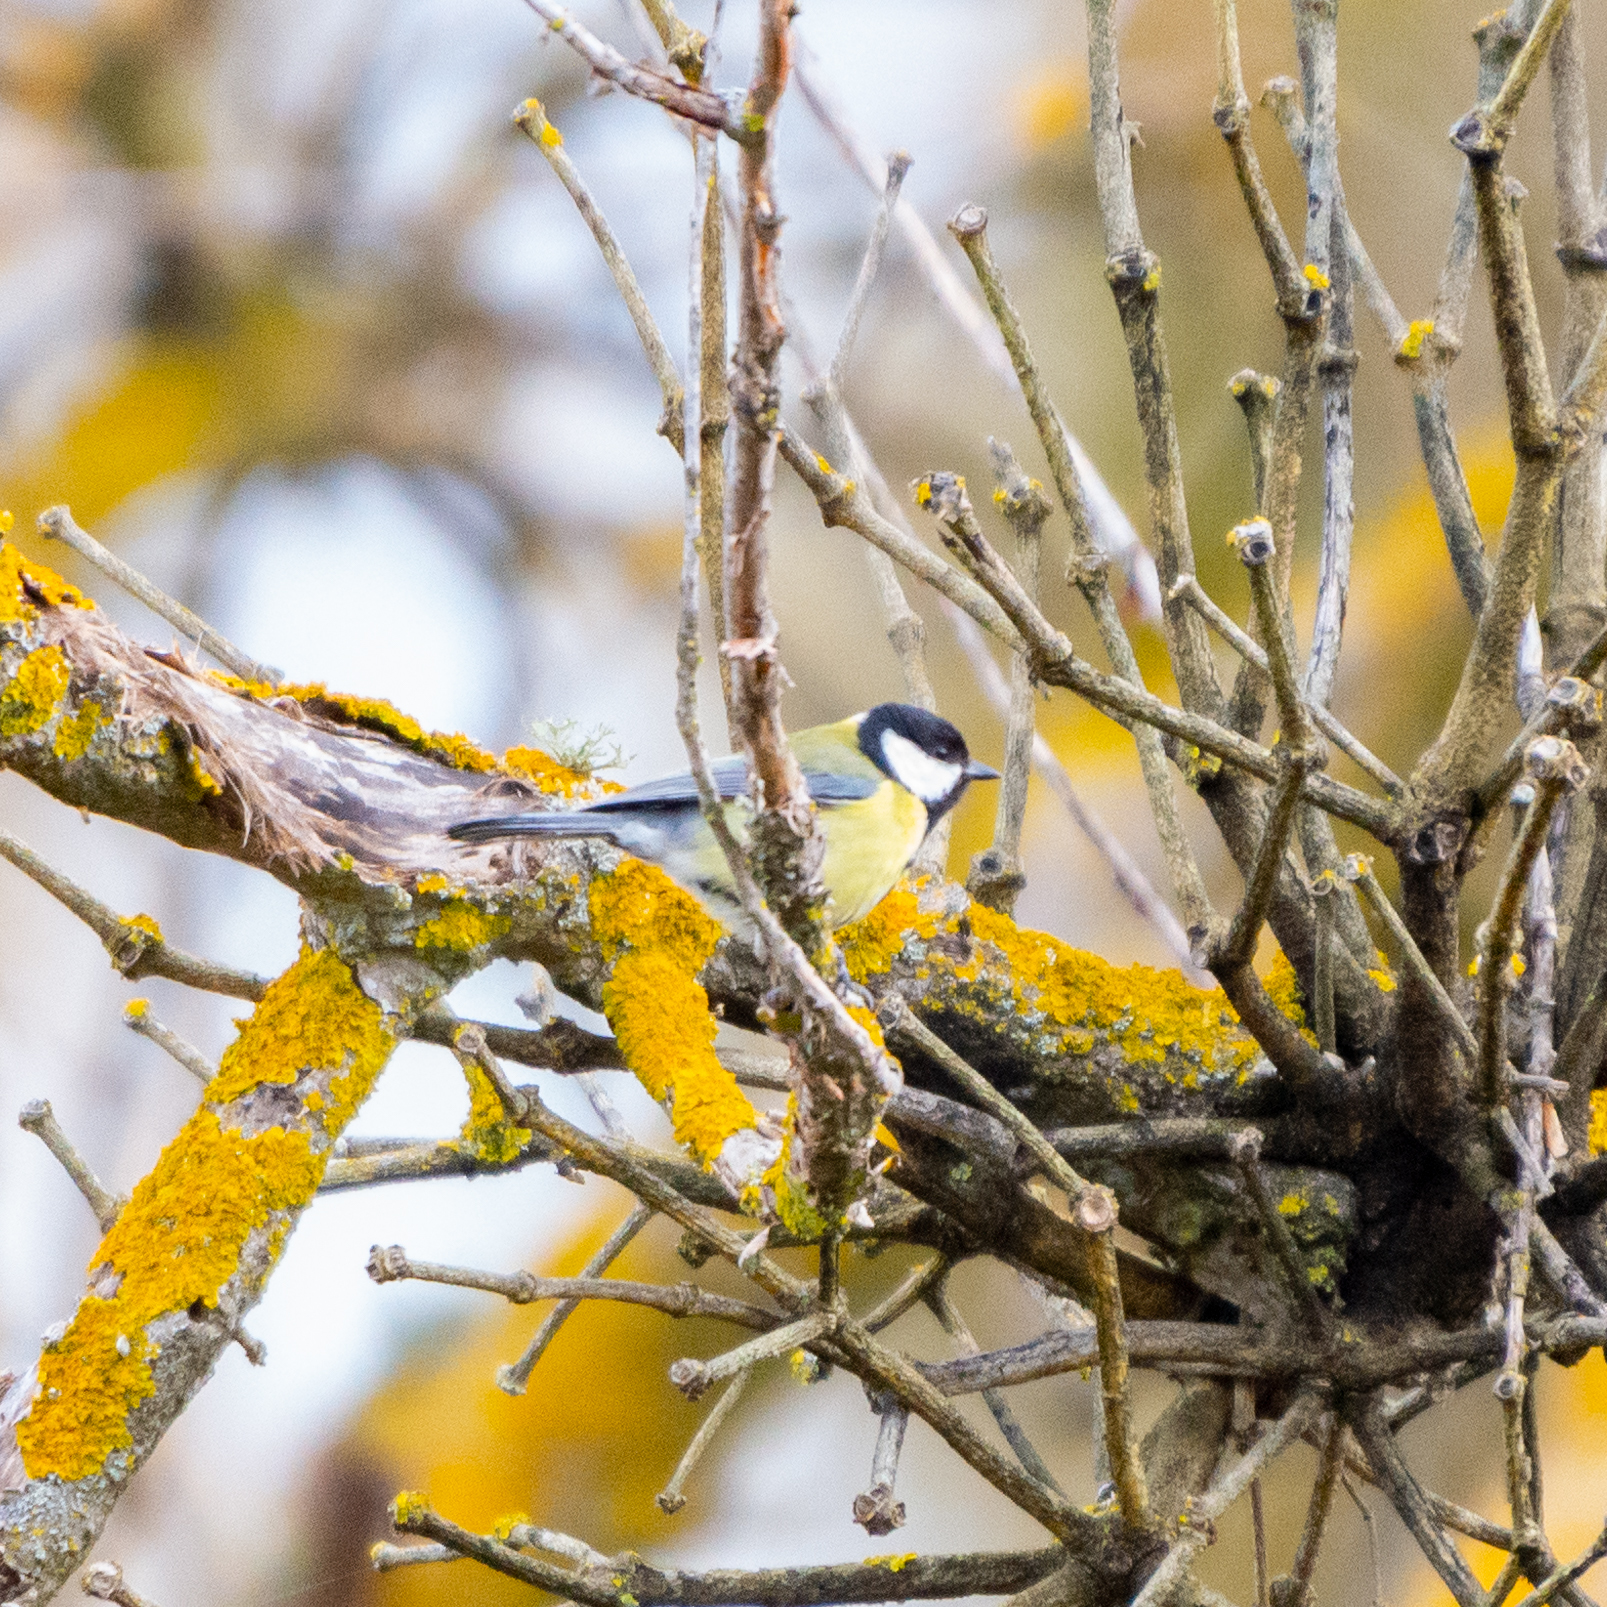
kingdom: Animalia
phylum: Chordata
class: Aves
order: Passeriformes
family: Paridae
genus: Parus
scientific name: Parus major
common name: Great tit
